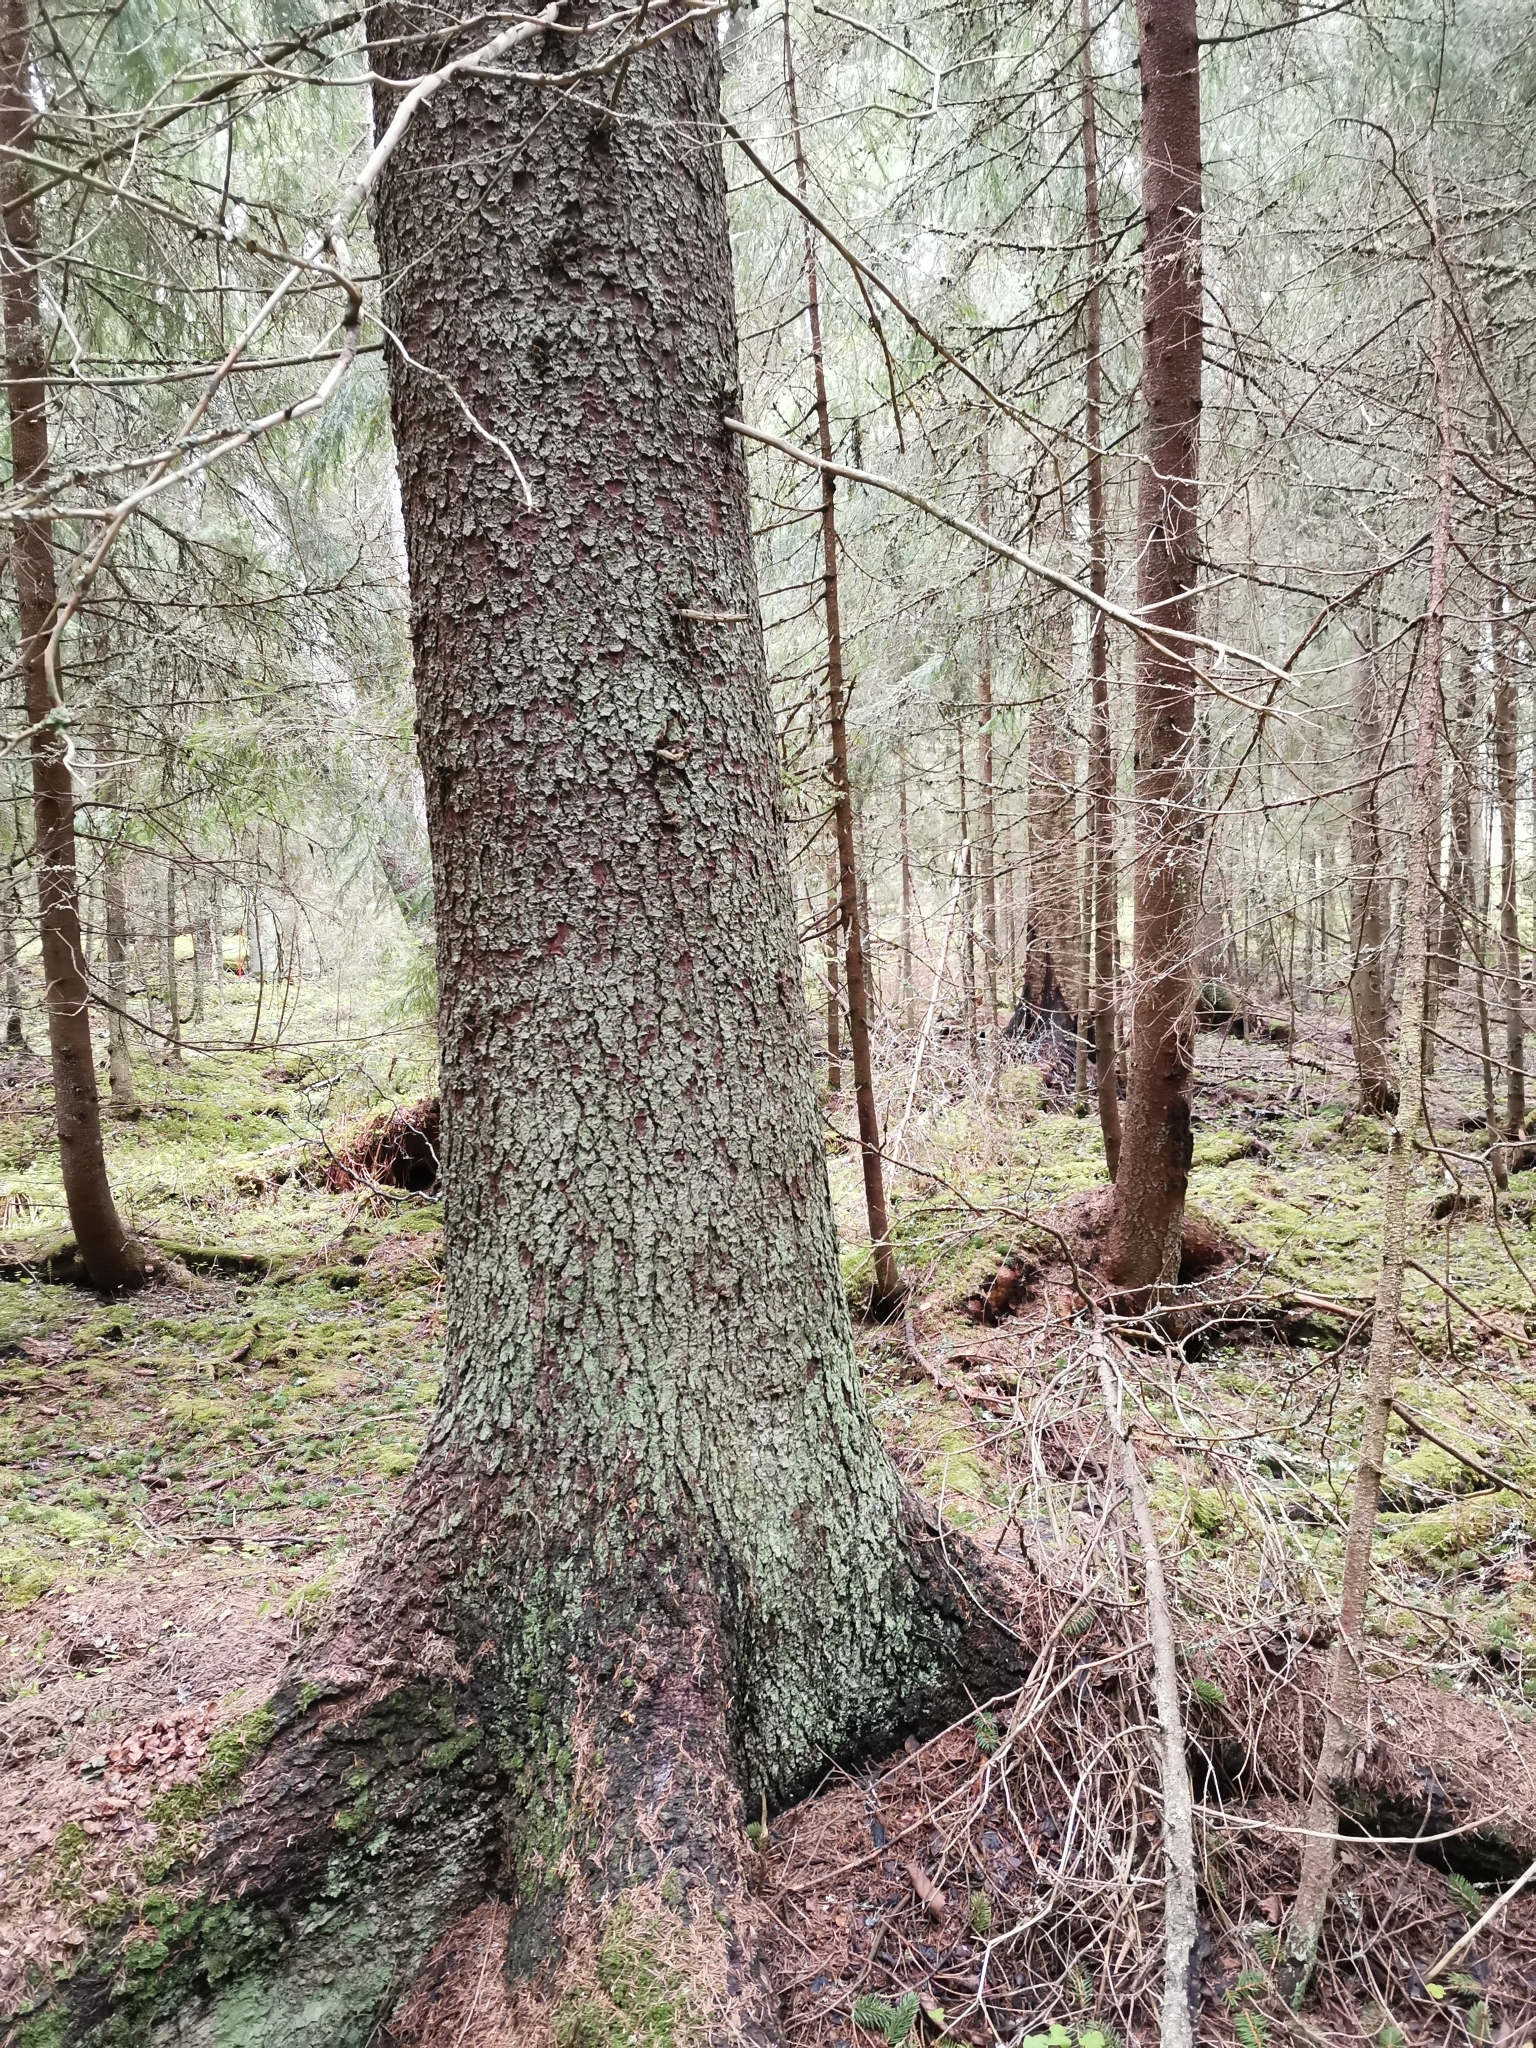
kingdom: Animalia
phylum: Chordata
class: Mammalia
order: Rodentia
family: Sciuridae
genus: Pteromys
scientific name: Pteromys volans
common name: Siberian flying squirrel
